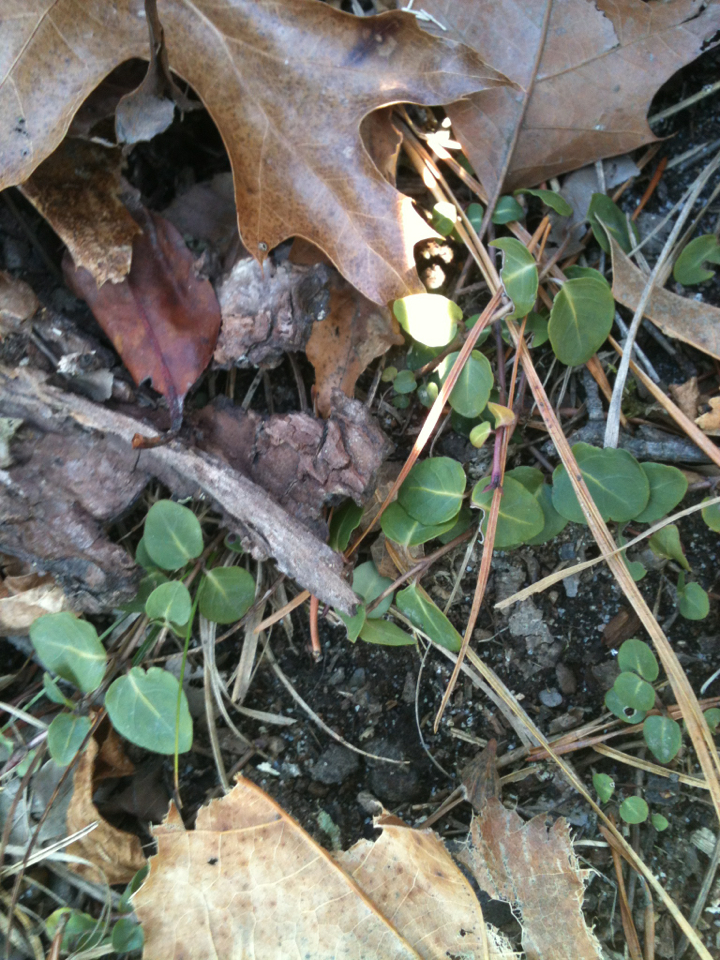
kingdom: Plantae
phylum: Tracheophyta
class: Magnoliopsida
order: Gentianales
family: Rubiaceae
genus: Mitchella
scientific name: Mitchella repens
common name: Partridge-berry
